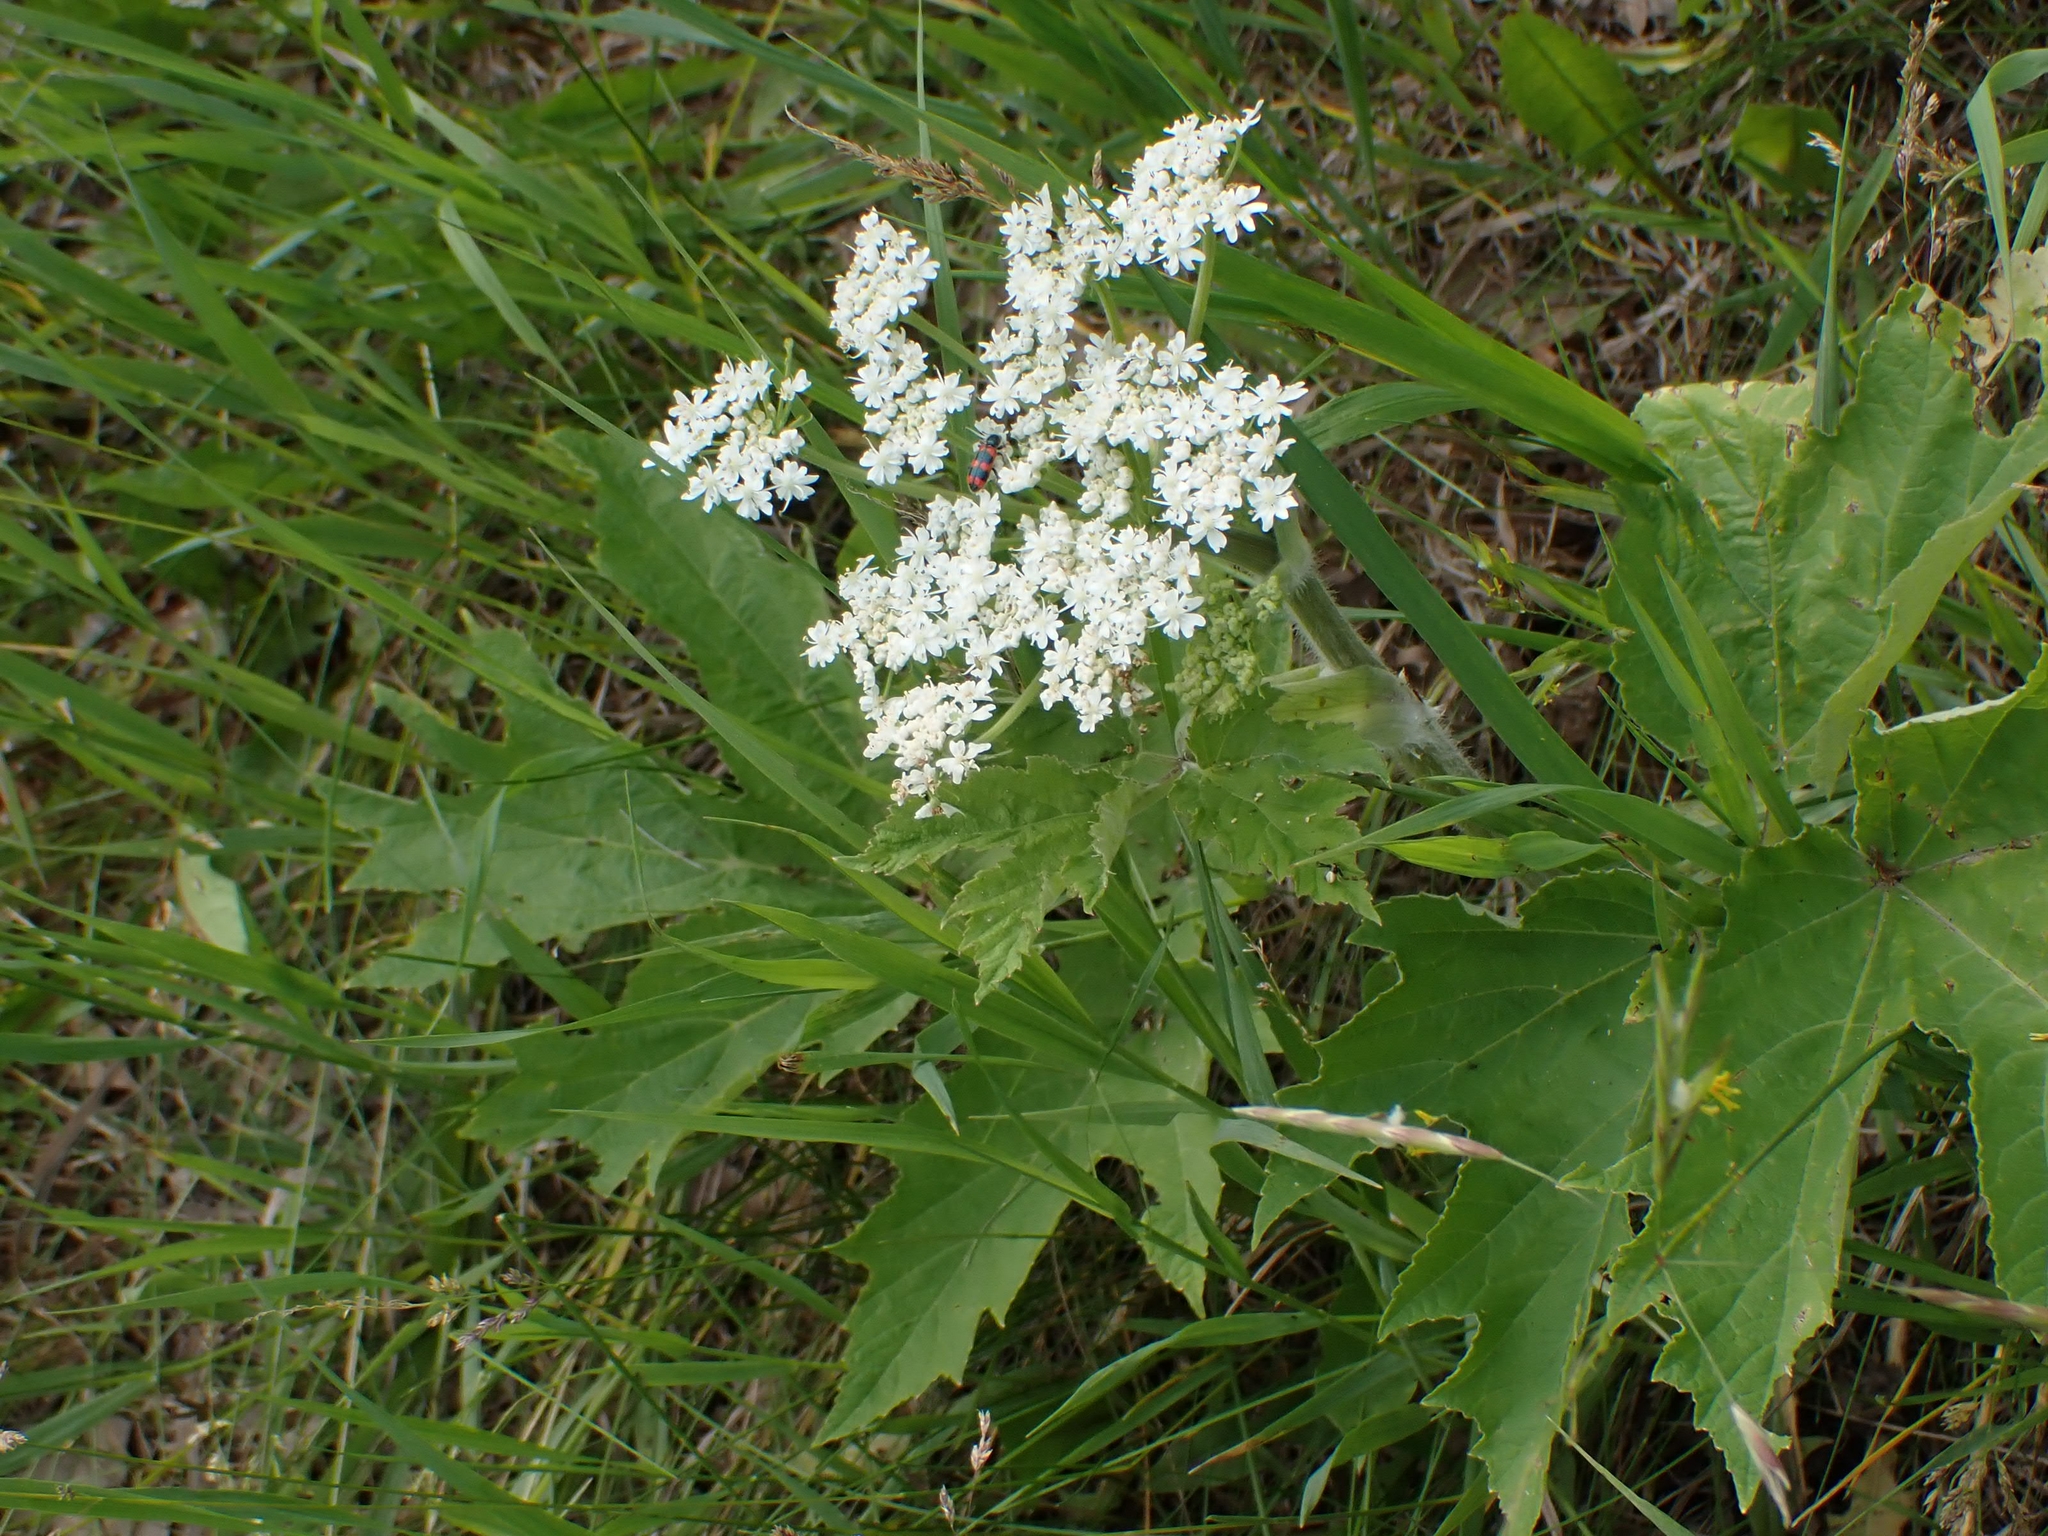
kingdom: Plantae
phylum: Tracheophyta
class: Magnoliopsida
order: Apiales
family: Apiaceae
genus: Heracleum
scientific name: Heracleum maximum
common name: American cow parsnip
